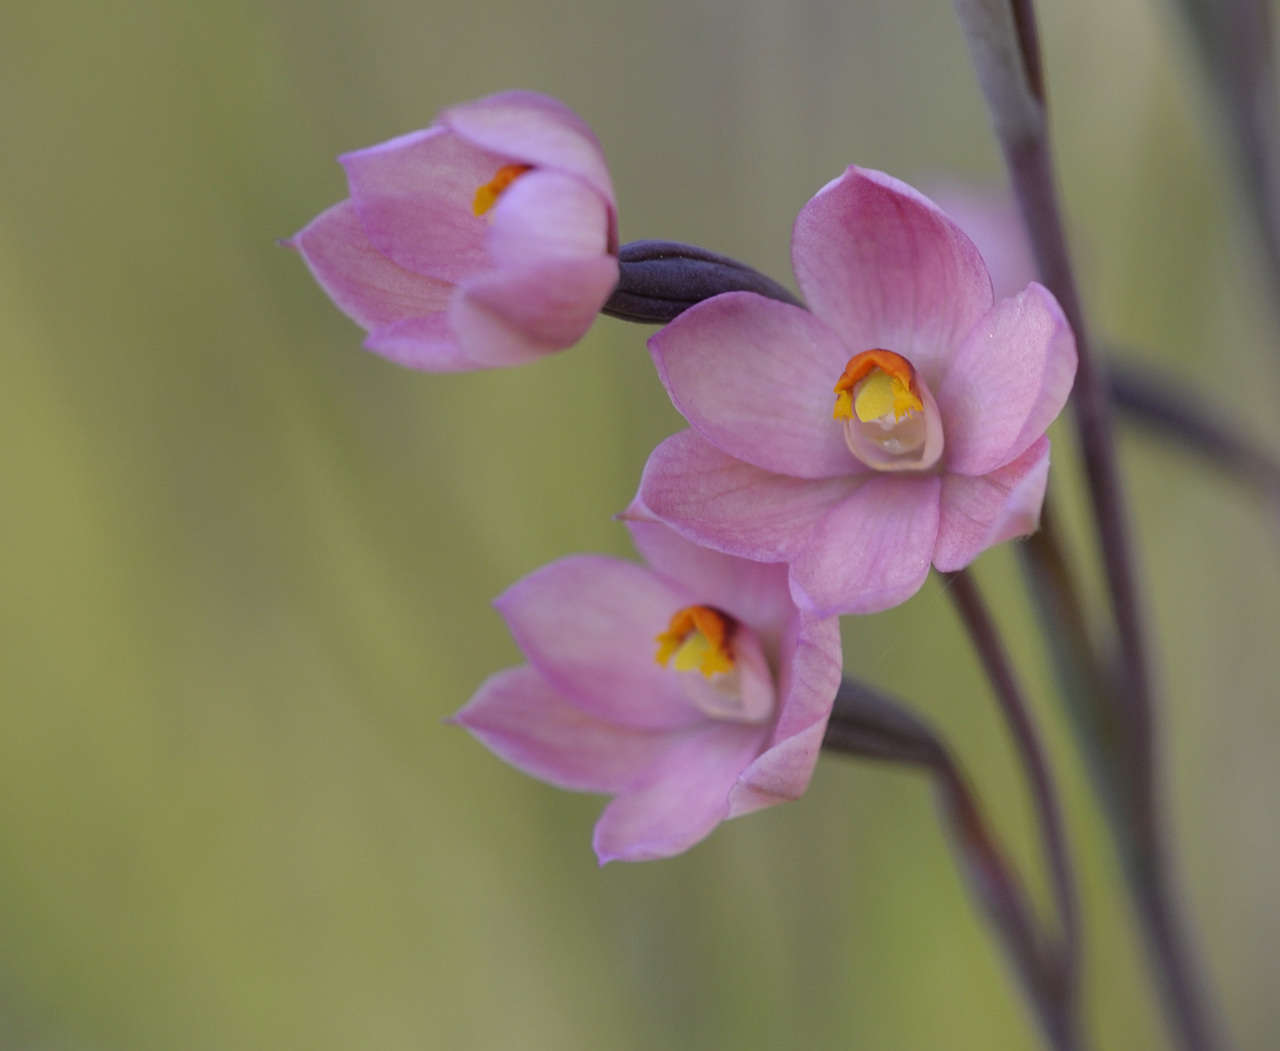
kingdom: Plantae
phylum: Tracheophyta
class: Liliopsida
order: Asparagales
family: Orchidaceae
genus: Thelymitra
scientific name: Thelymitra rubra
